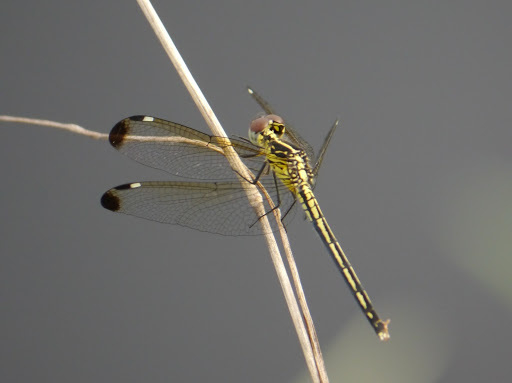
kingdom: Animalia
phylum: Arthropoda
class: Insecta
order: Odonata
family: Libellulidae
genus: Hemistigma
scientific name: Hemistigma albipunctum
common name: African pied-spot
